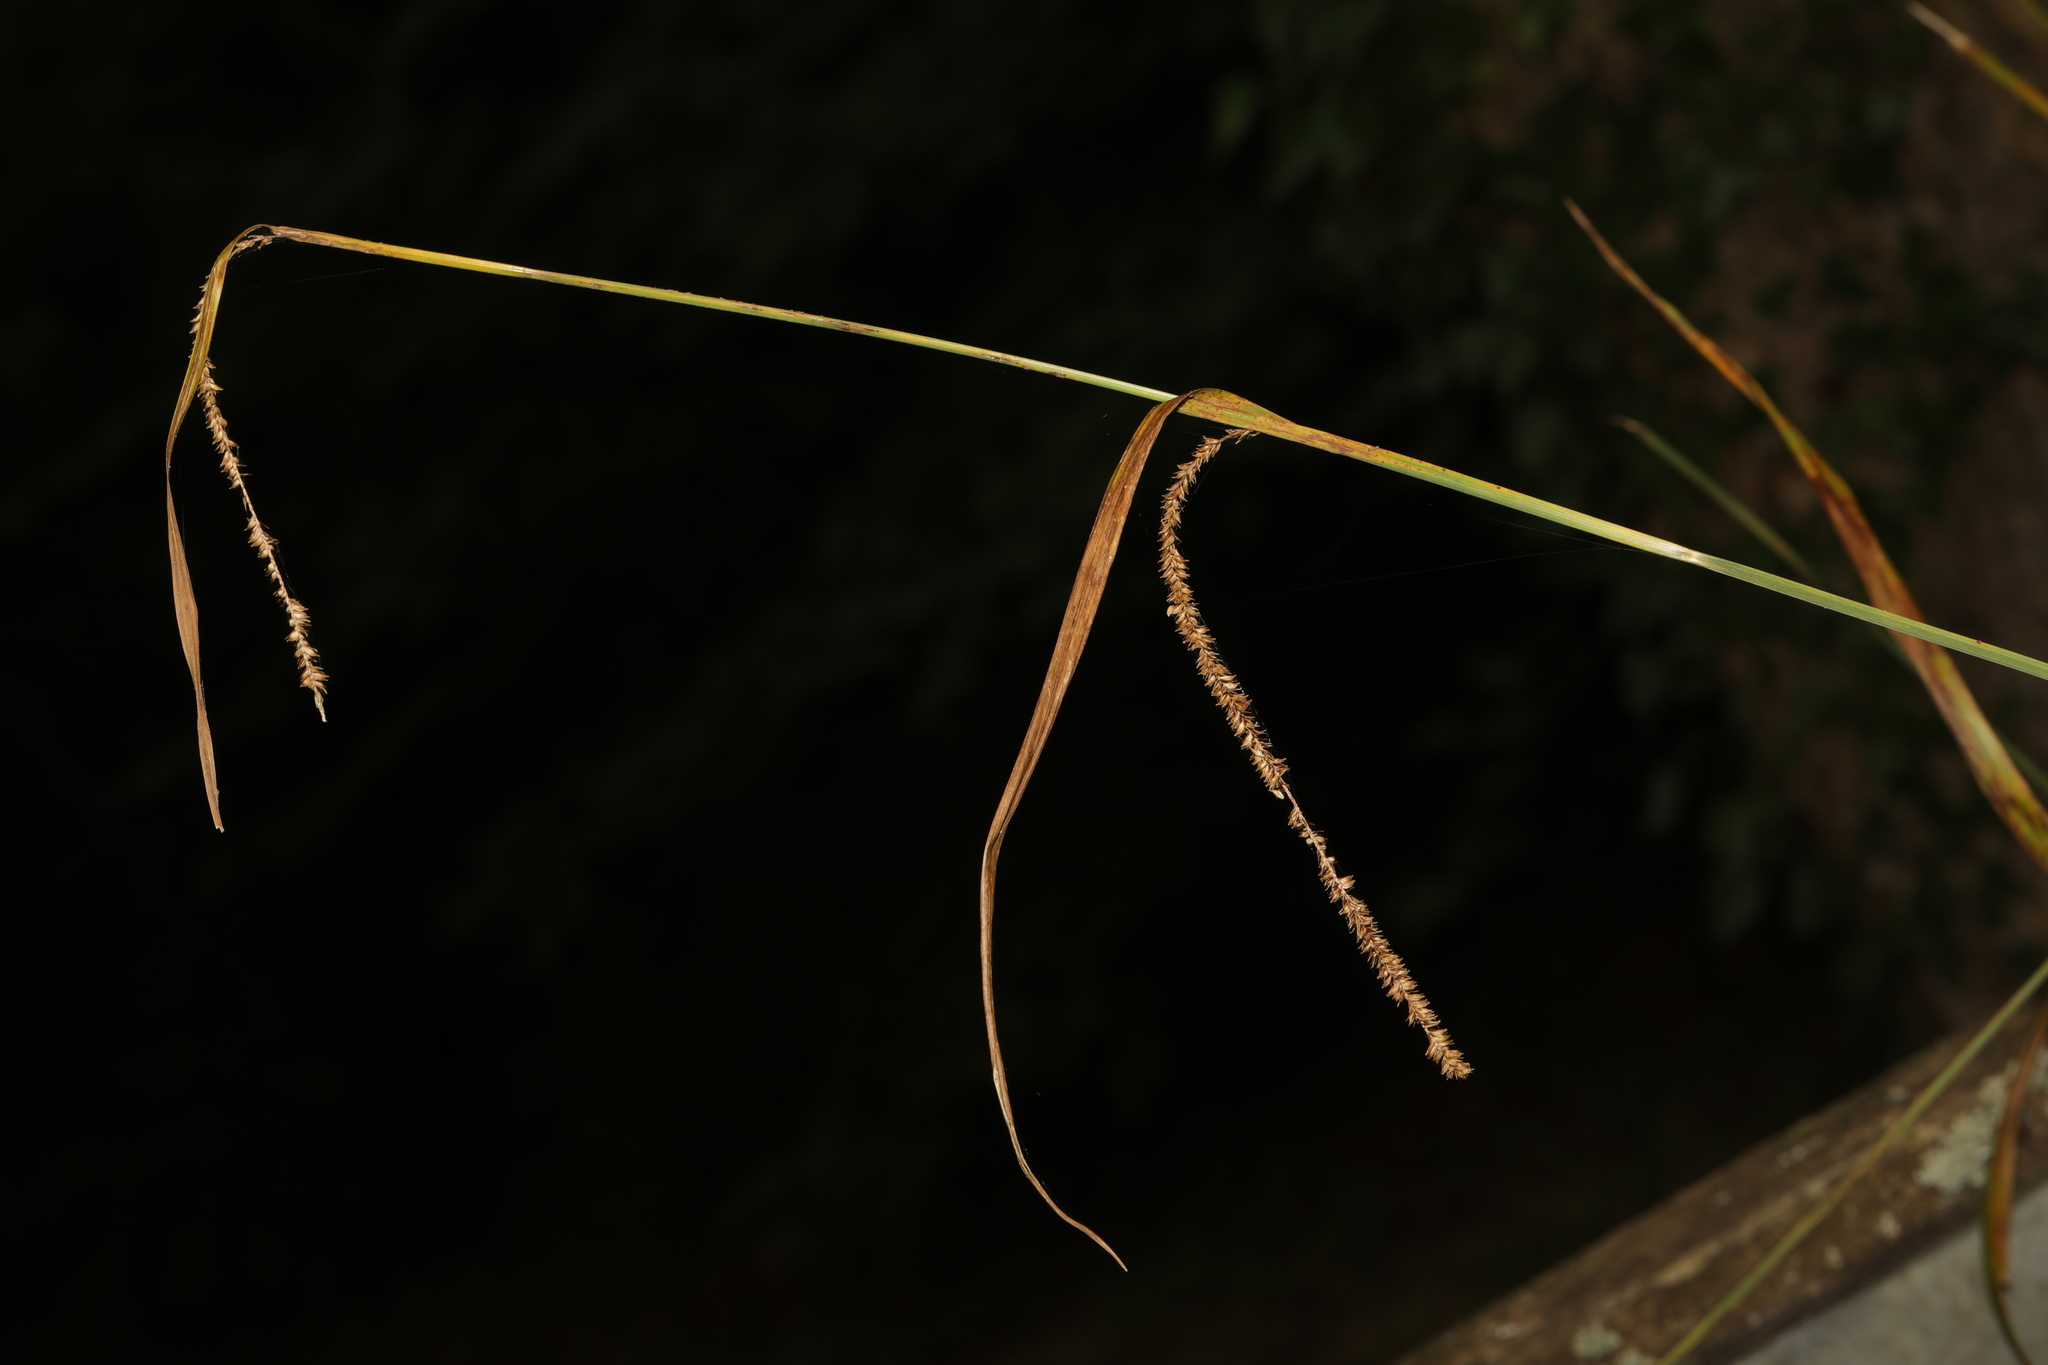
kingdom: Plantae
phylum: Tracheophyta
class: Liliopsida
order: Poales
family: Cyperaceae
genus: Carex
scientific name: Carex pendula
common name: Pendulous sedge
